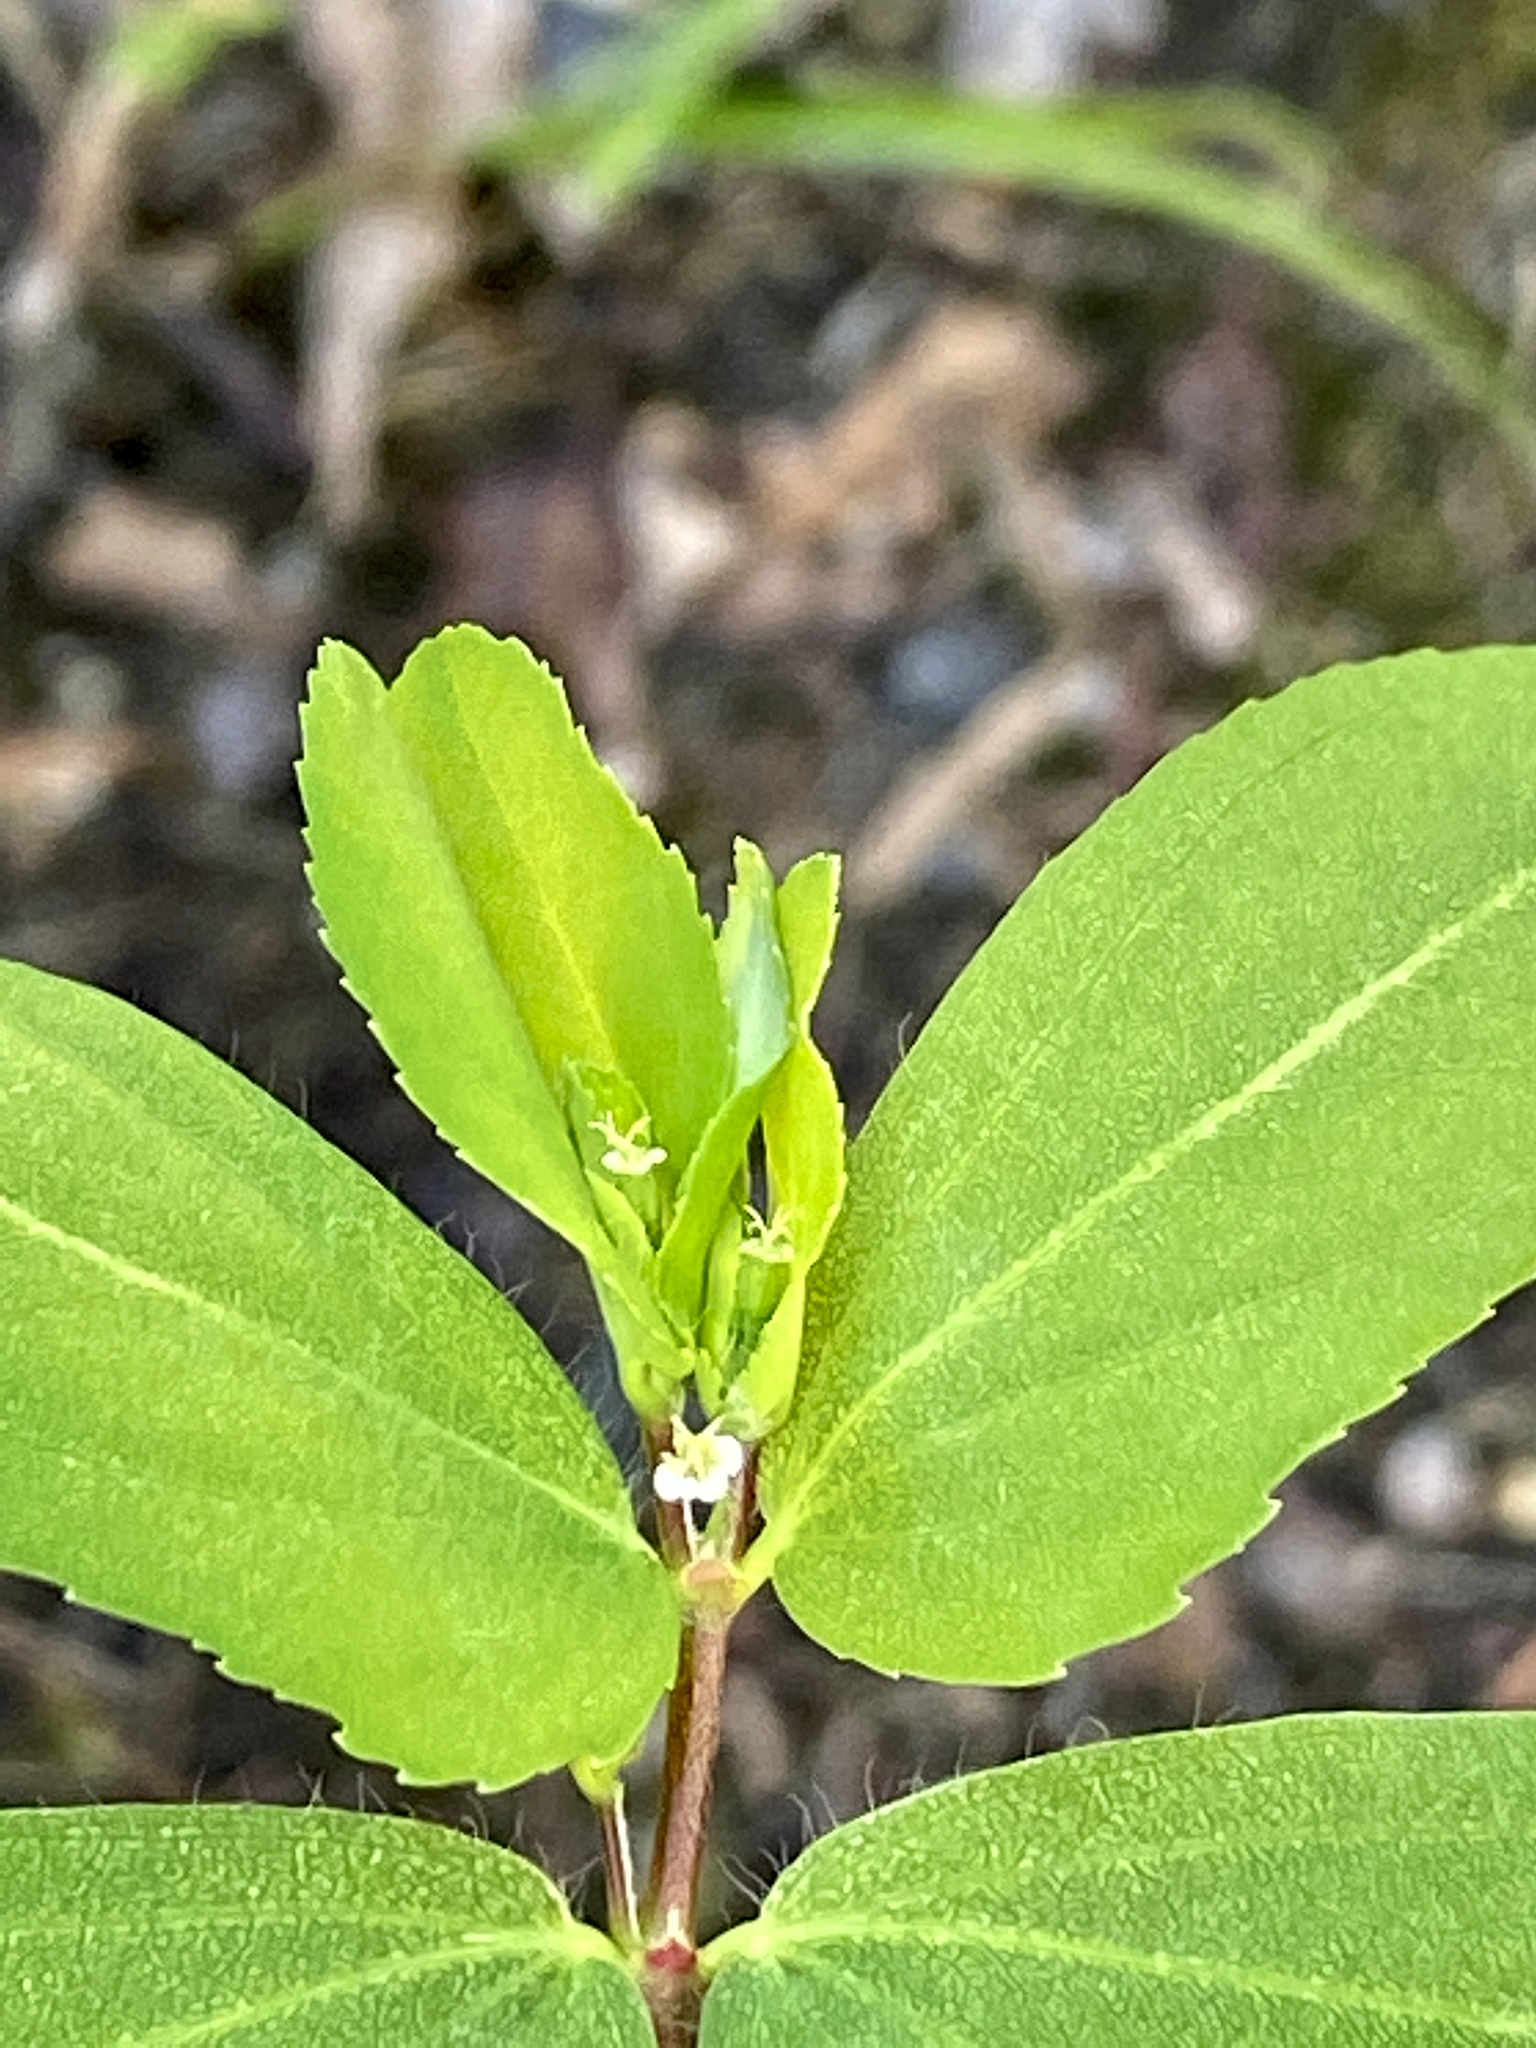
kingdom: Plantae
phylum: Tracheophyta
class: Magnoliopsida
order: Malpighiales
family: Euphorbiaceae
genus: Euphorbia
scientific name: Euphorbia nutans
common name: Eyebane
